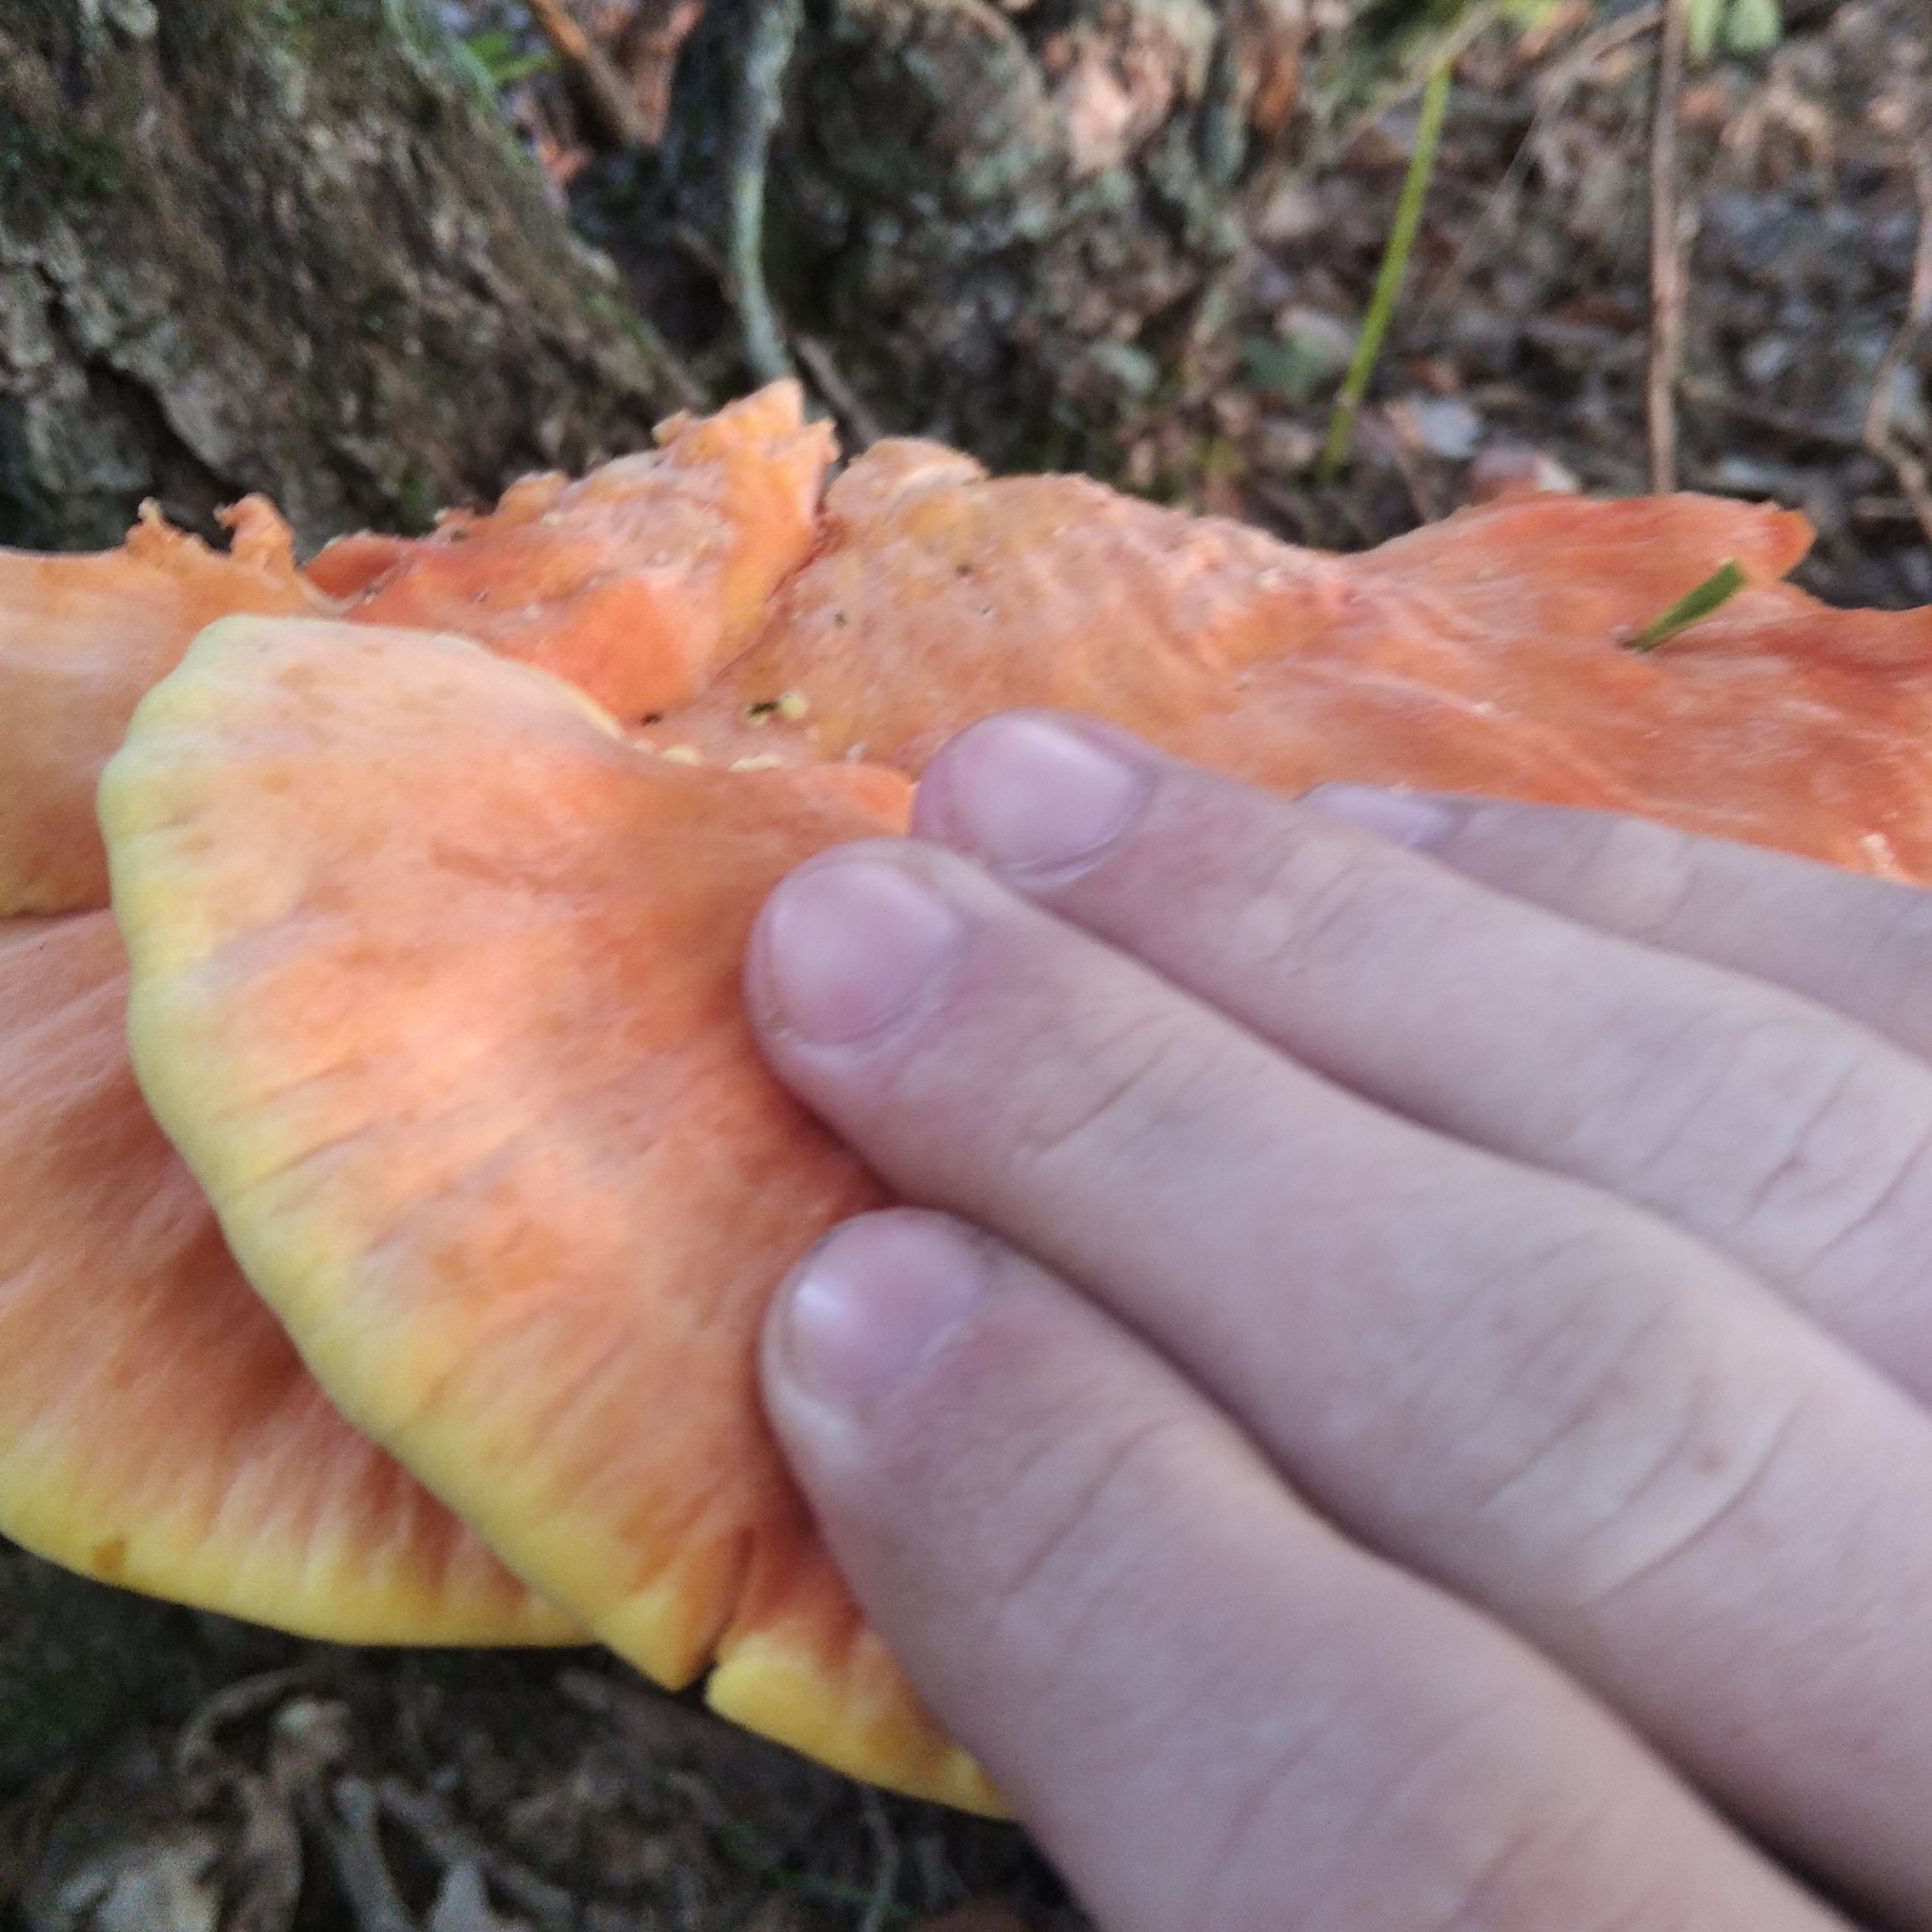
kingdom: Fungi
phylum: Basidiomycota
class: Agaricomycetes
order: Polyporales
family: Laetiporaceae
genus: Laetiporus
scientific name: Laetiporus sulphureus
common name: Chicken of the woods
